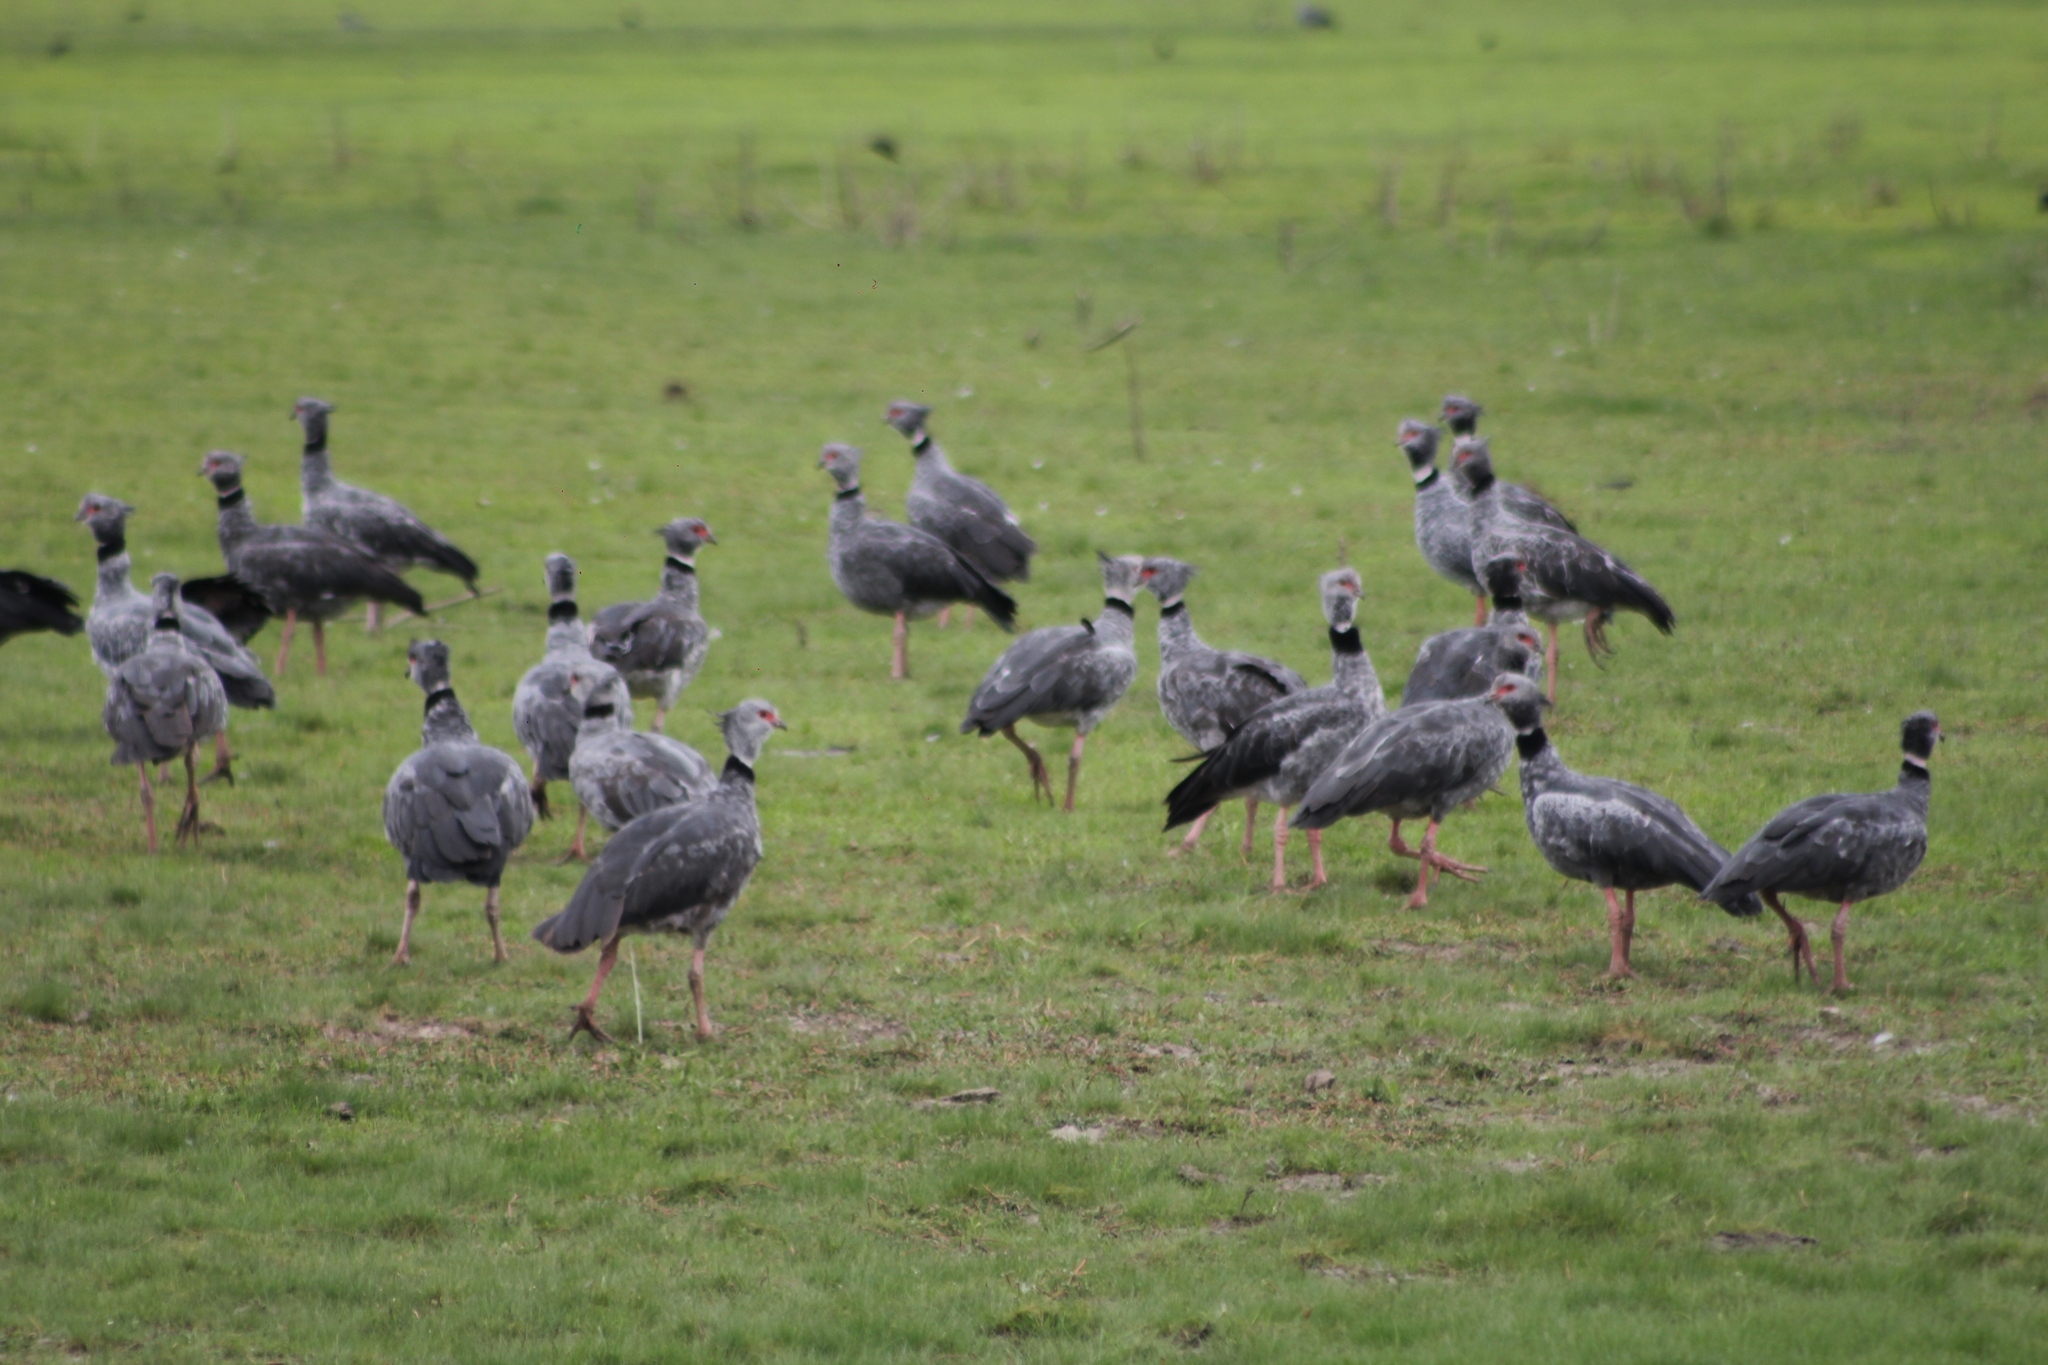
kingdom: Animalia
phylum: Chordata
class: Aves
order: Anseriformes
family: Anhimidae
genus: Chauna
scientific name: Chauna torquata
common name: Southern screamer
